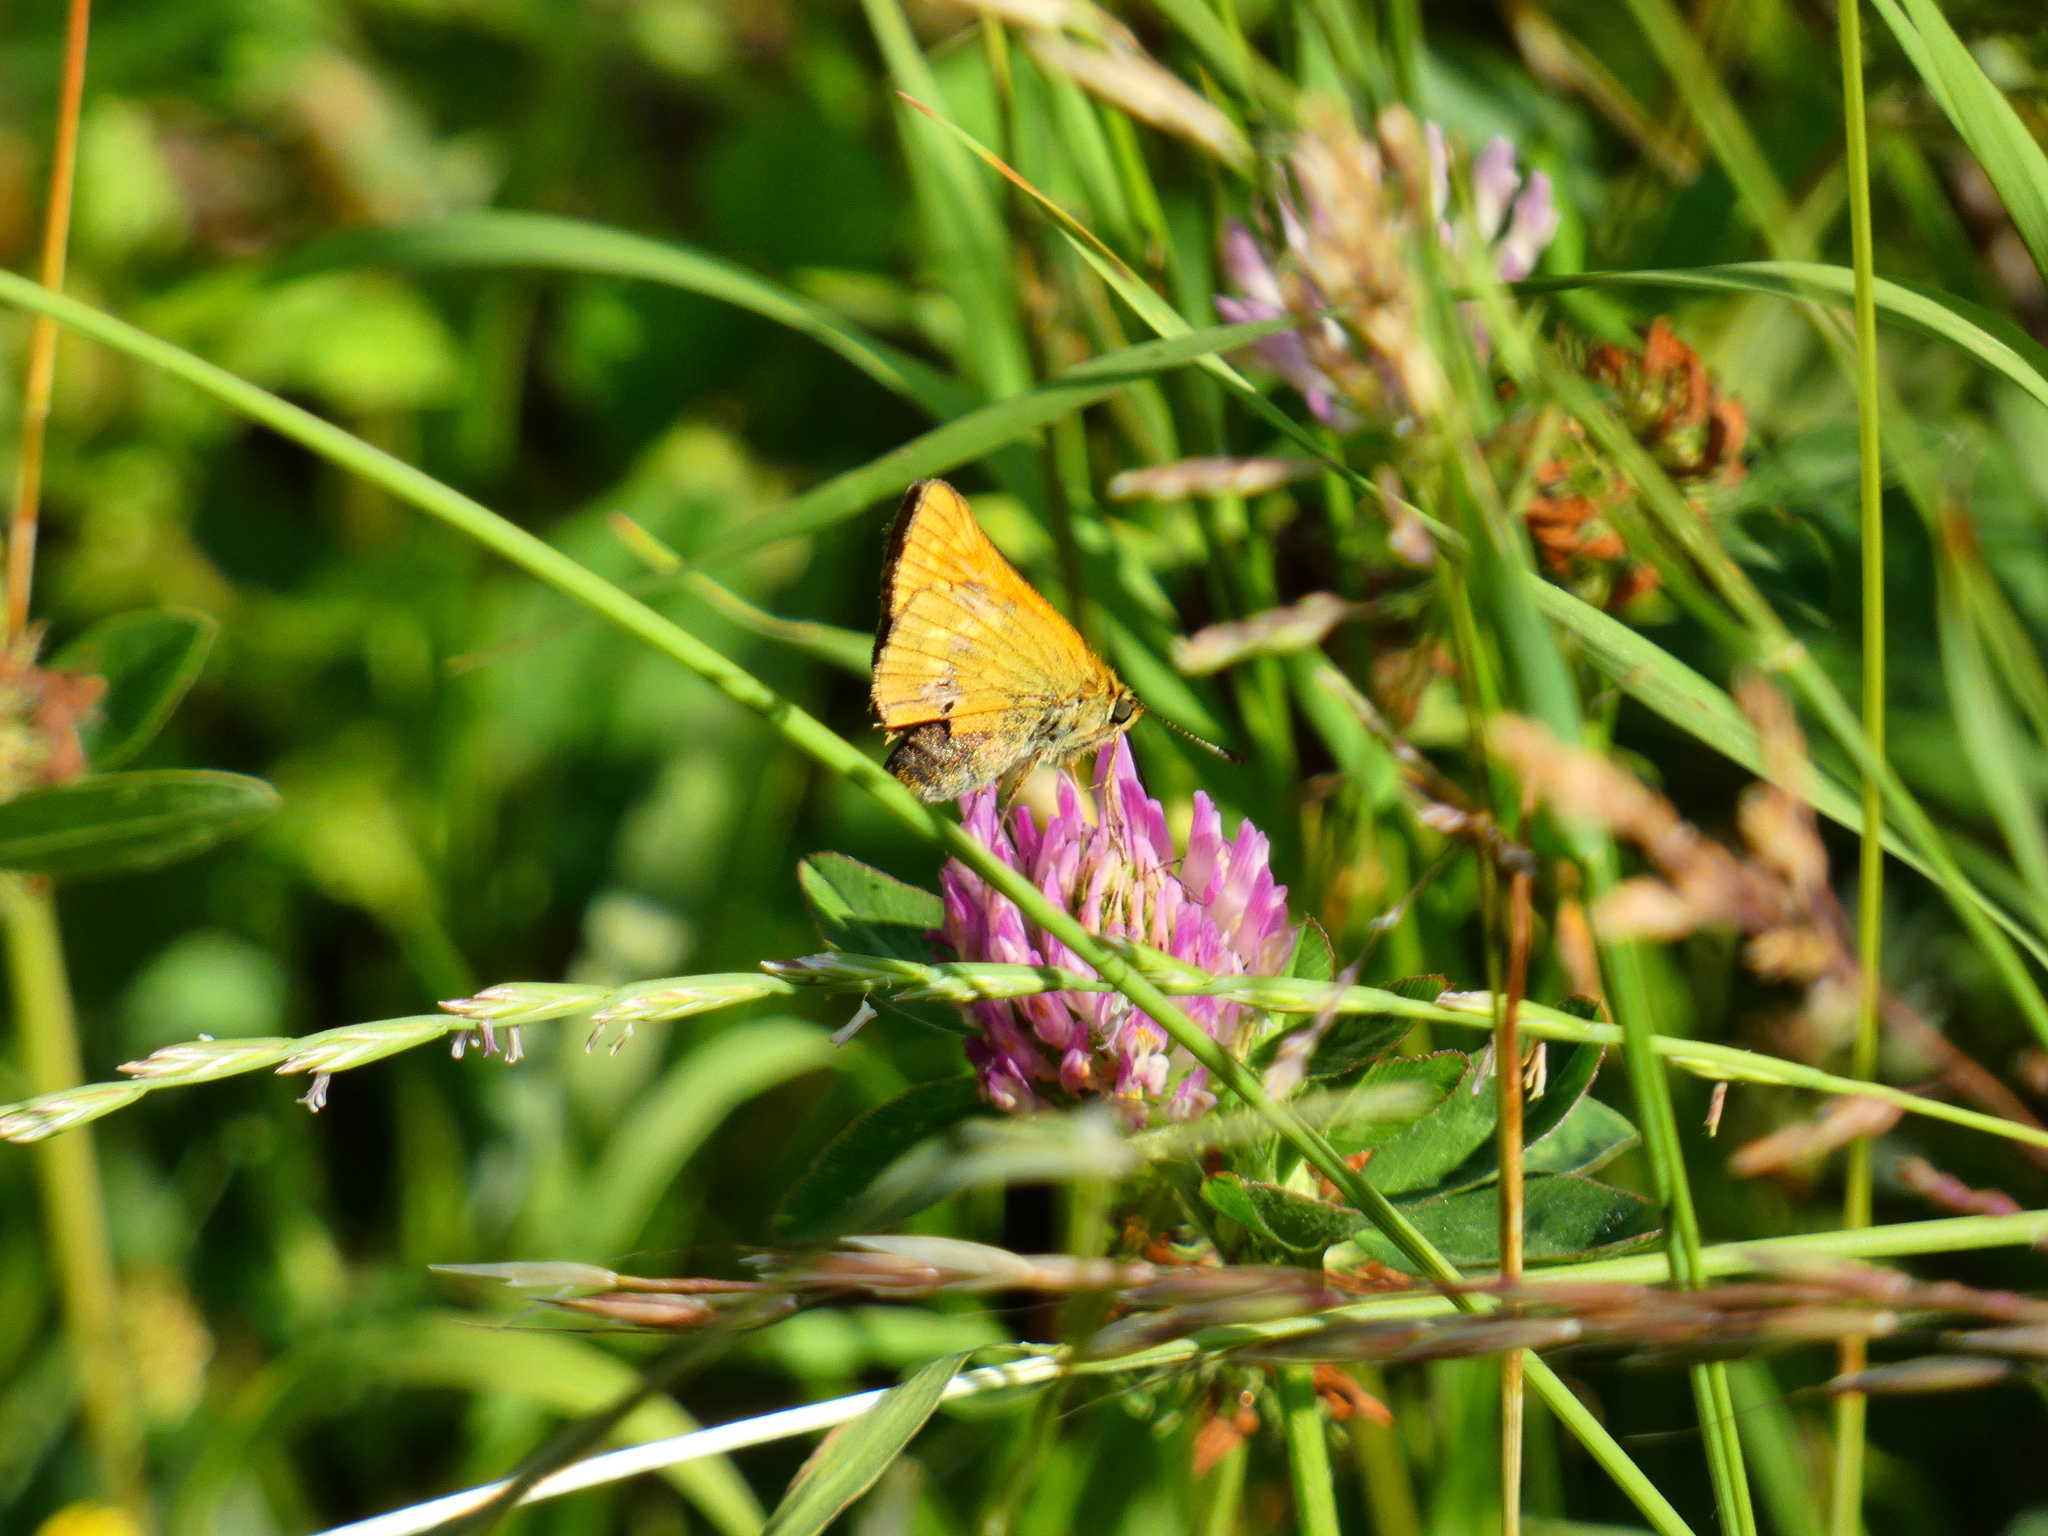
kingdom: Animalia
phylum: Arthropoda
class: Insecta
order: Lepidoptera
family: Hesperiidae
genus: Ochlodes
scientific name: Ochlodes venata
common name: Large skipper
